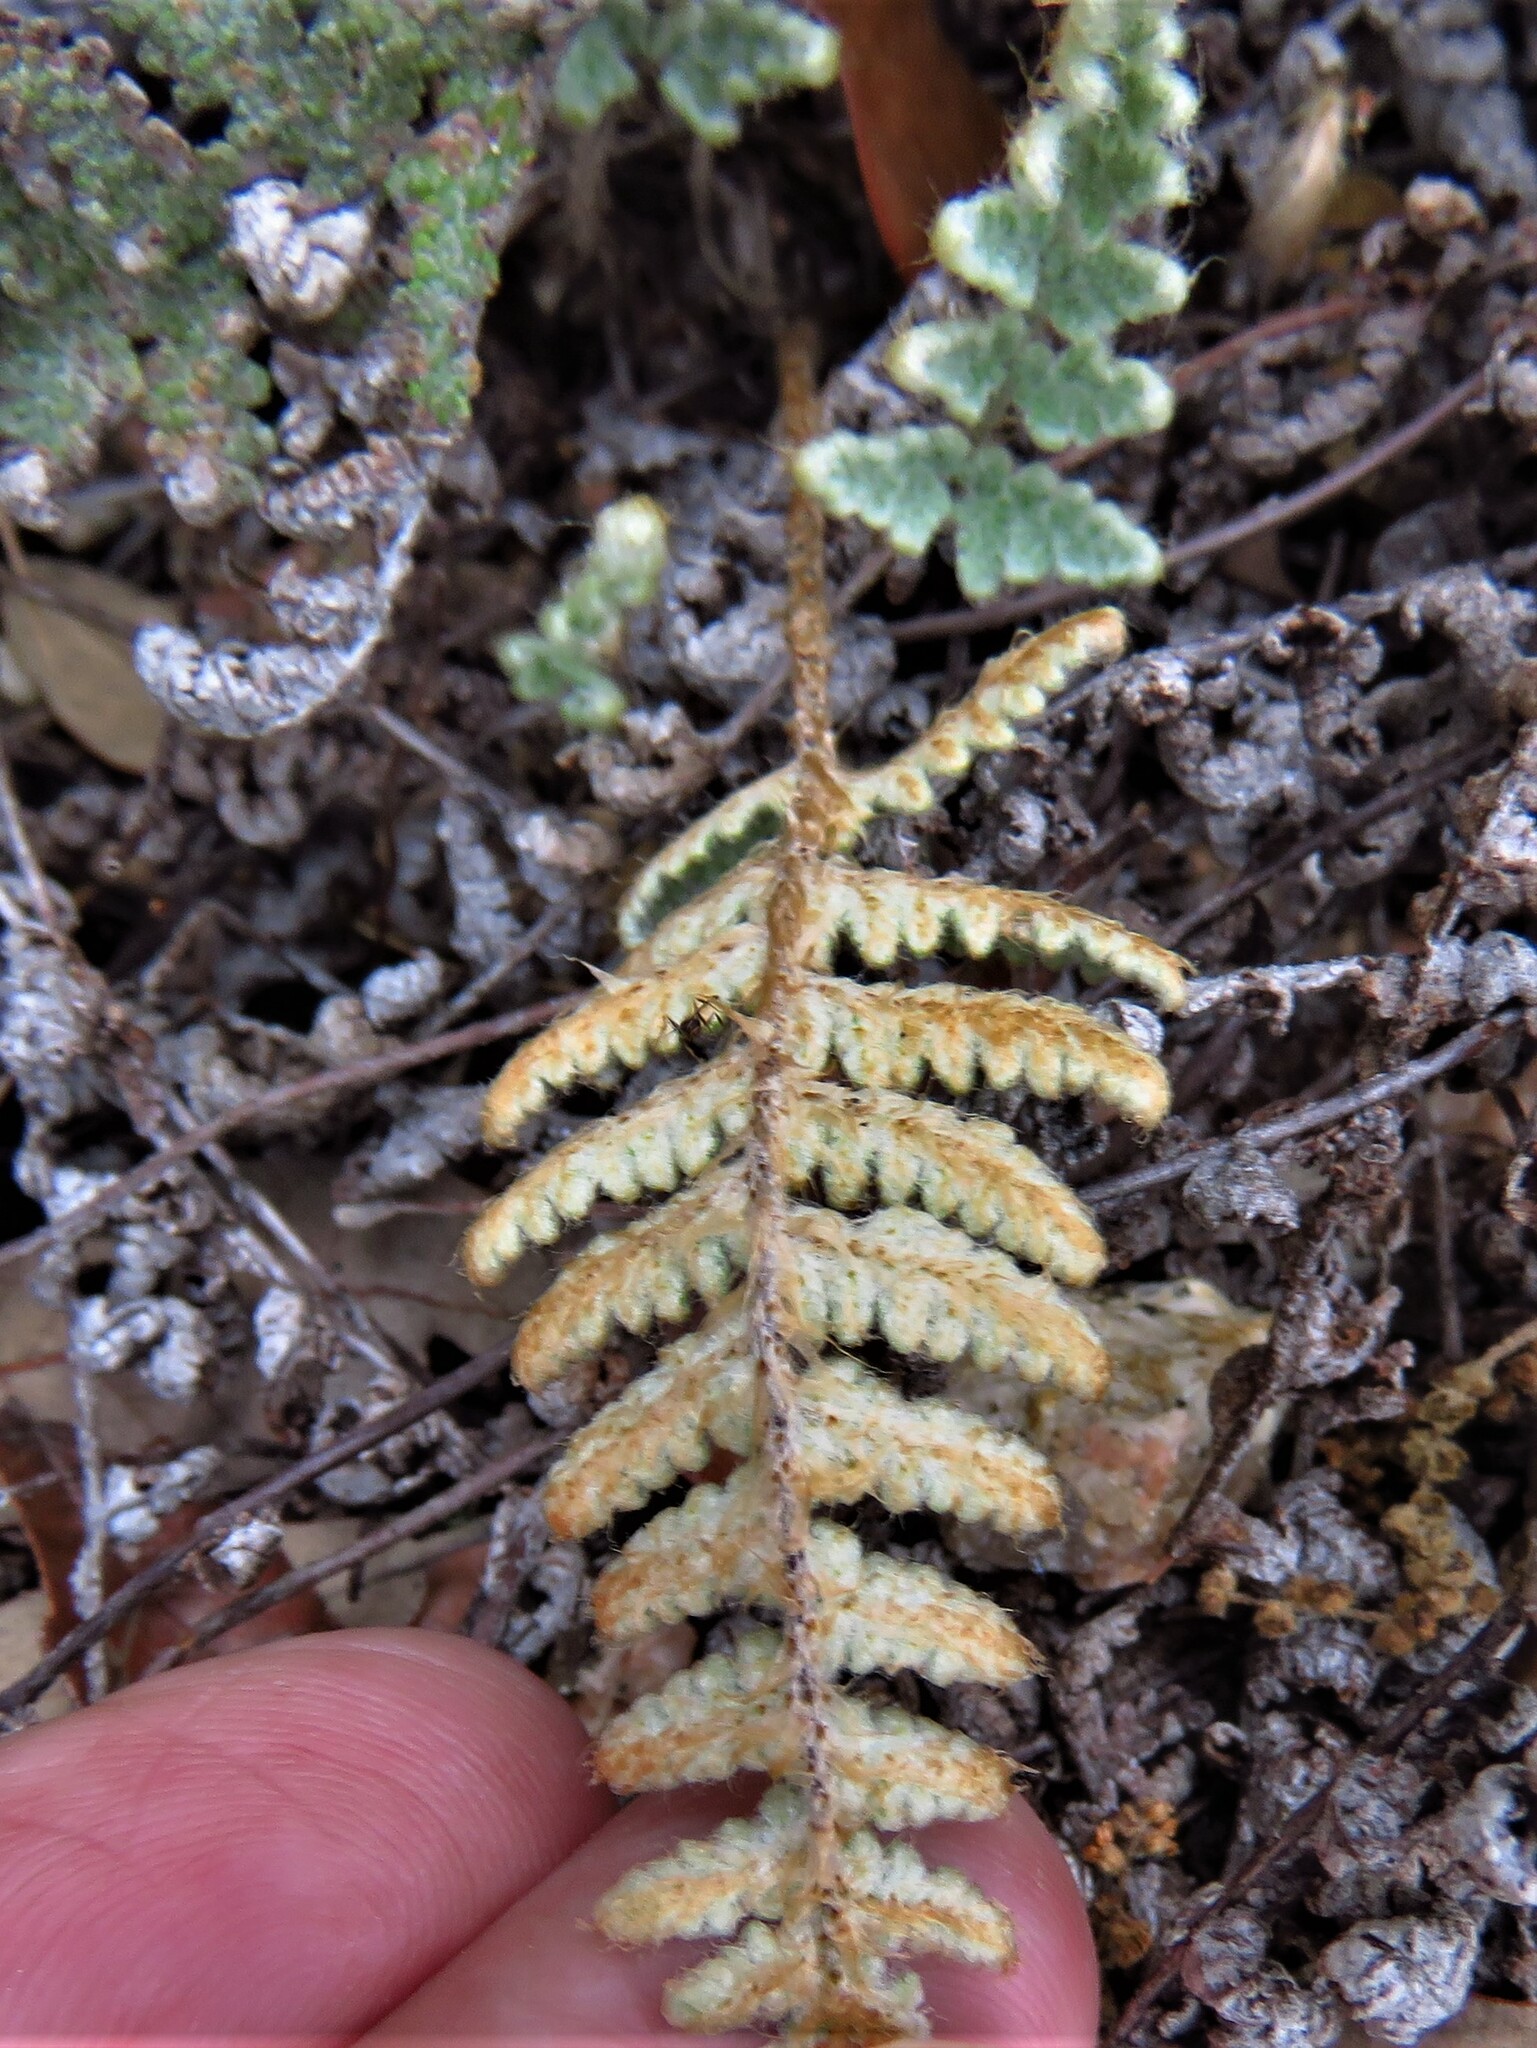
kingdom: Plantae
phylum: Tracheophyta
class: Polypodiopsida
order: Polypodiales
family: Pteridaceae
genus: Myriopteris
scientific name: Myriopteris lindheimeri
